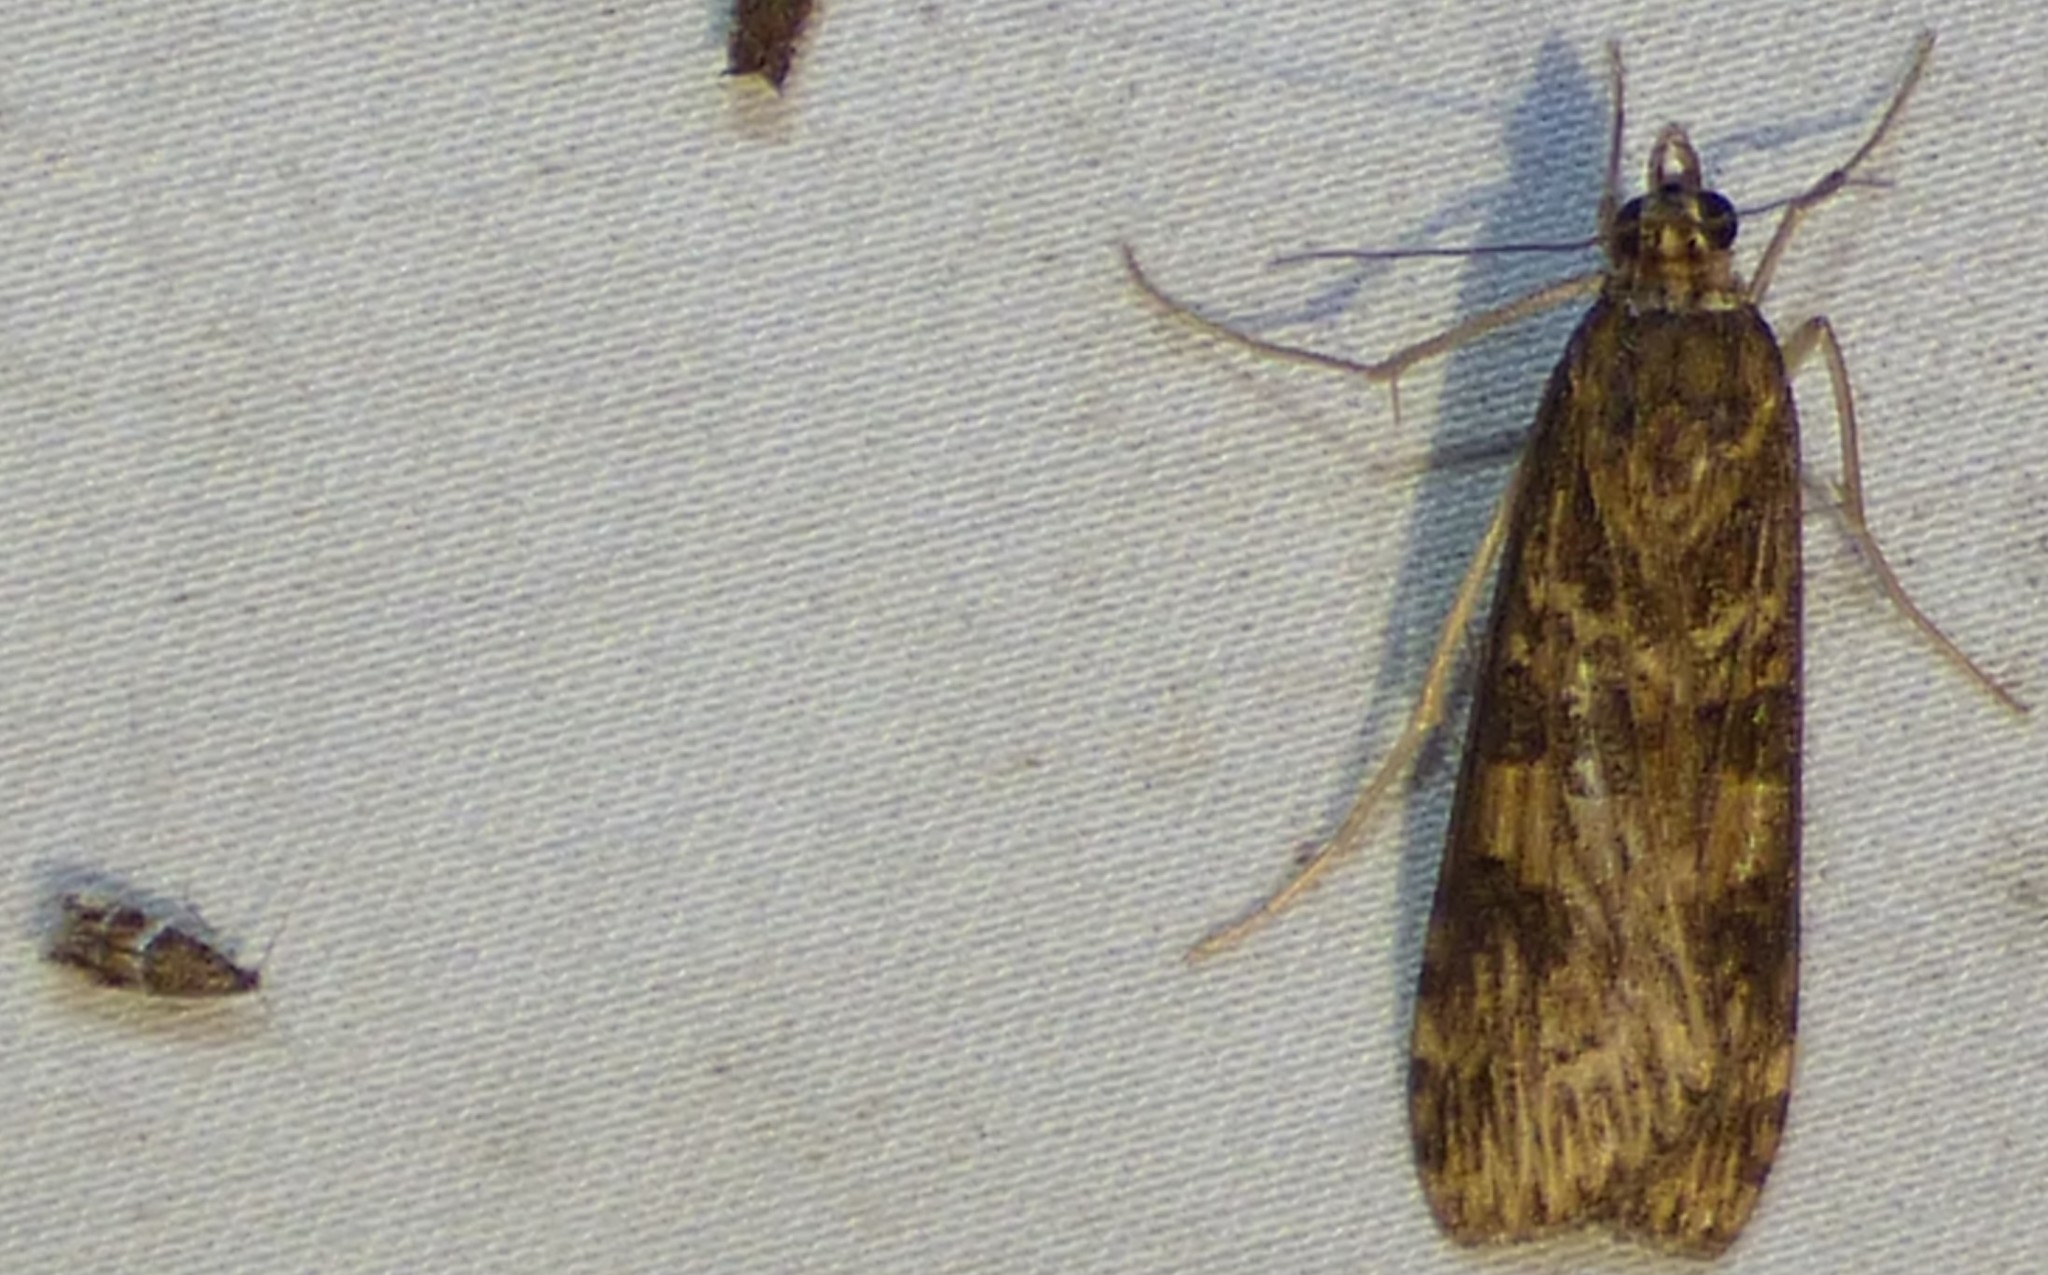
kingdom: Animalia
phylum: Arthropoda
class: Insecta
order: Lepidoptera
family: Crambidae
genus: Nomophila
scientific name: Nomophila nearctica
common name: American rush veneer
